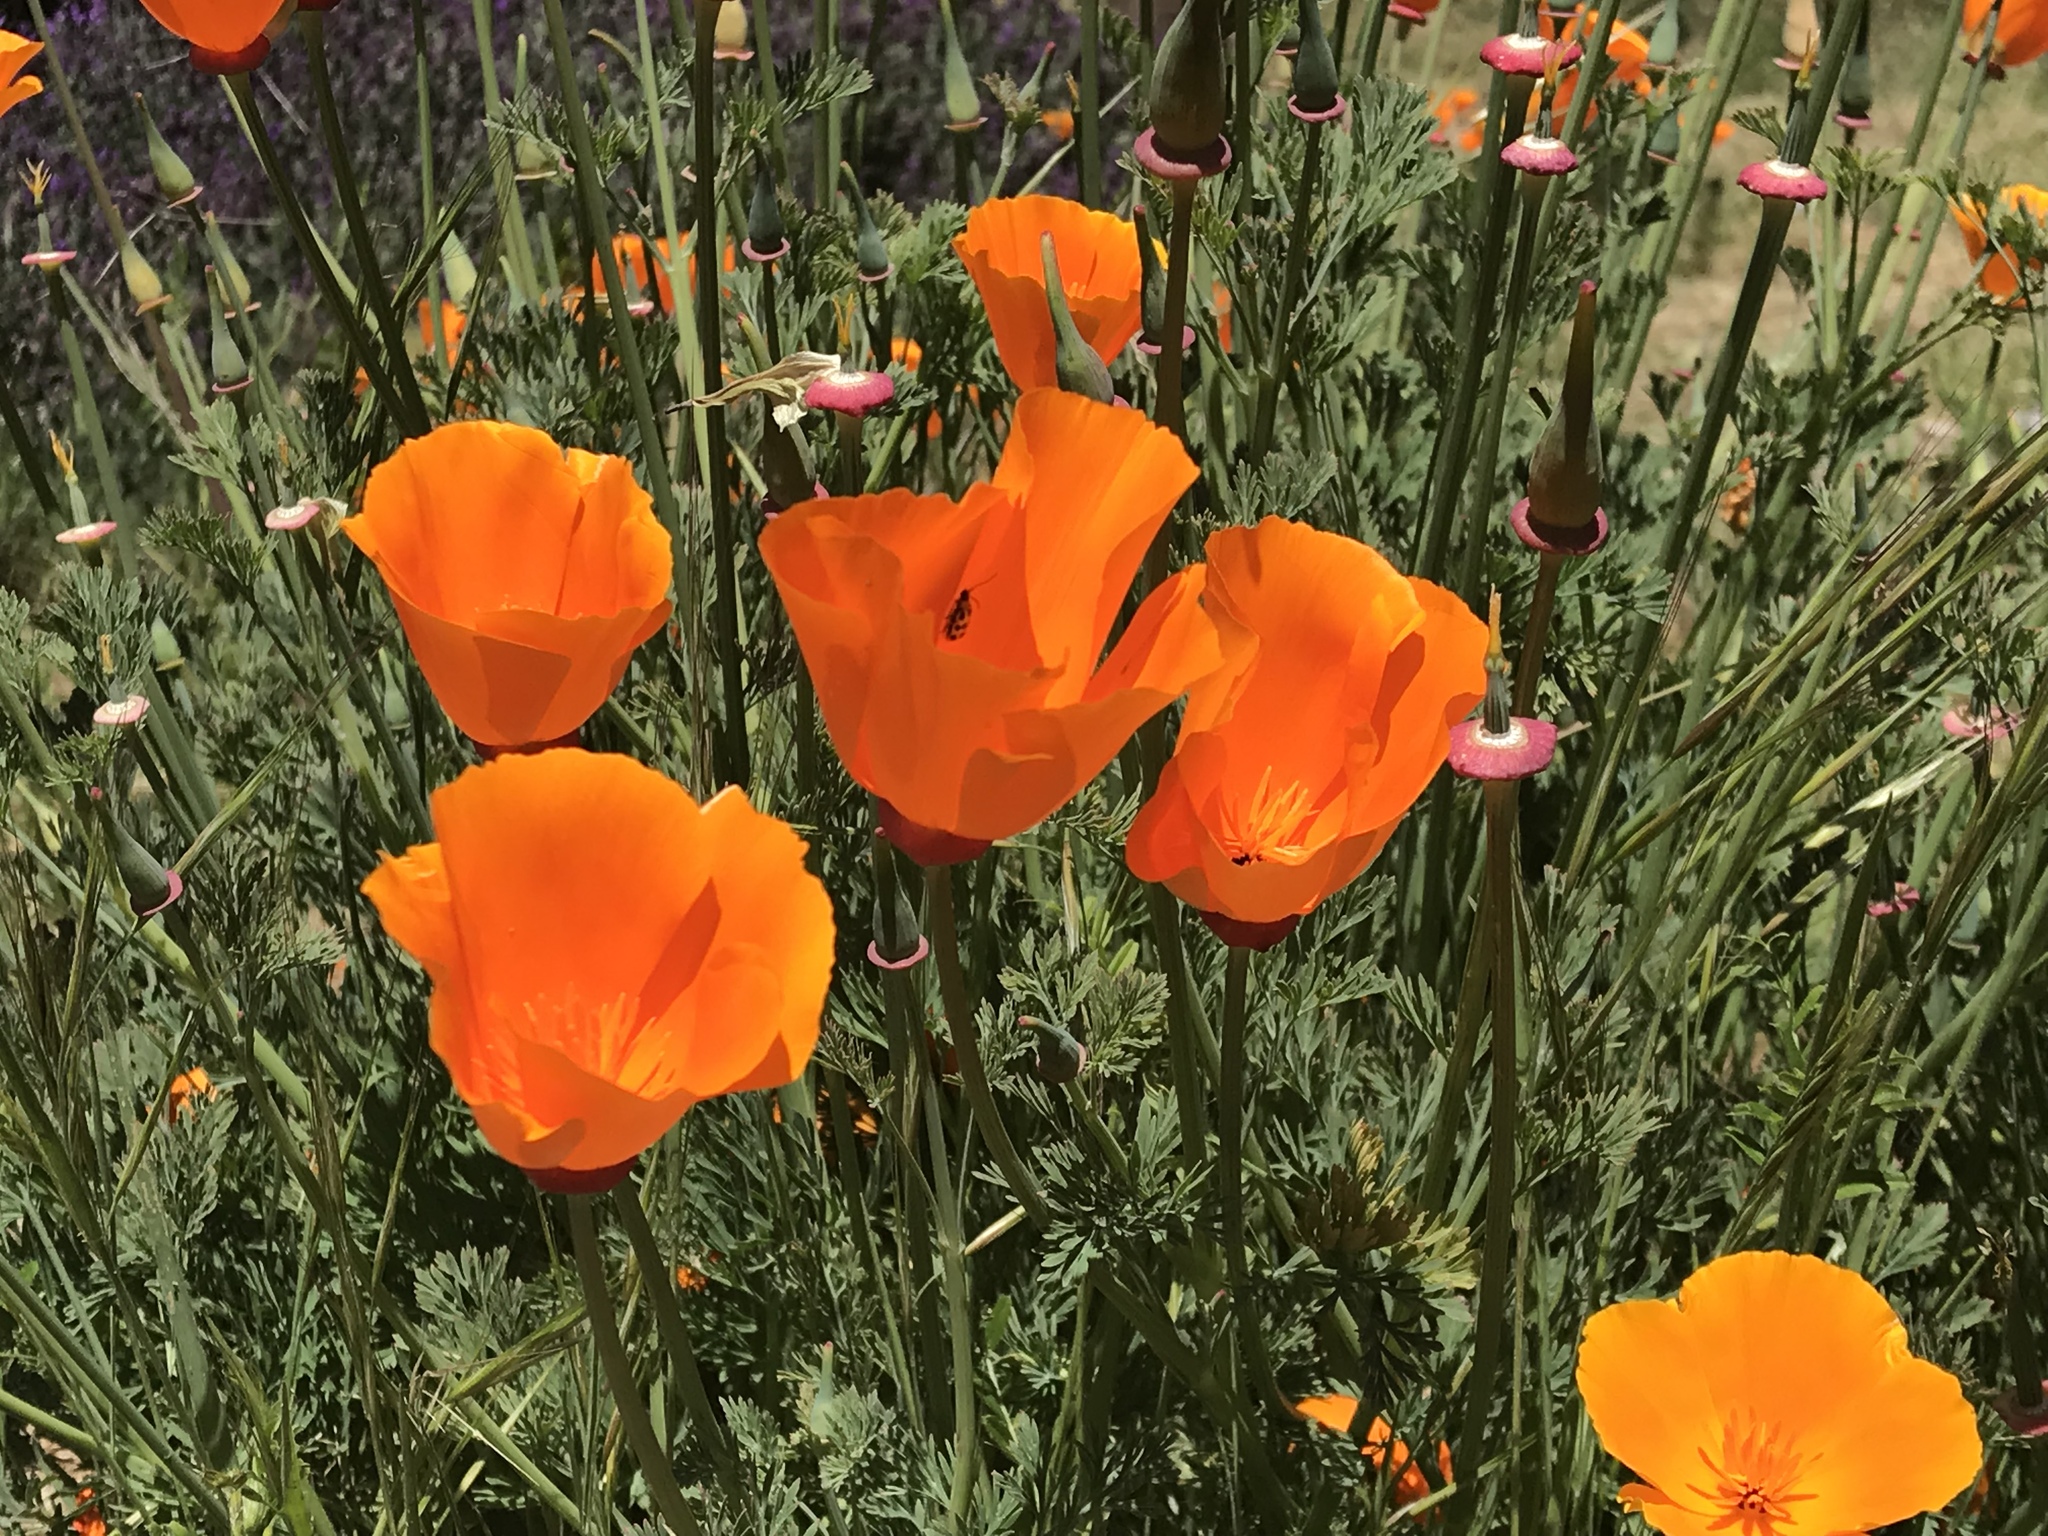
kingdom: Plantae
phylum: Tracheophyta
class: Magnoliopsida
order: Ranunculales
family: Papaveraceae
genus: Eschscholzia
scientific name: Eschscholzia californica
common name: California poppy
